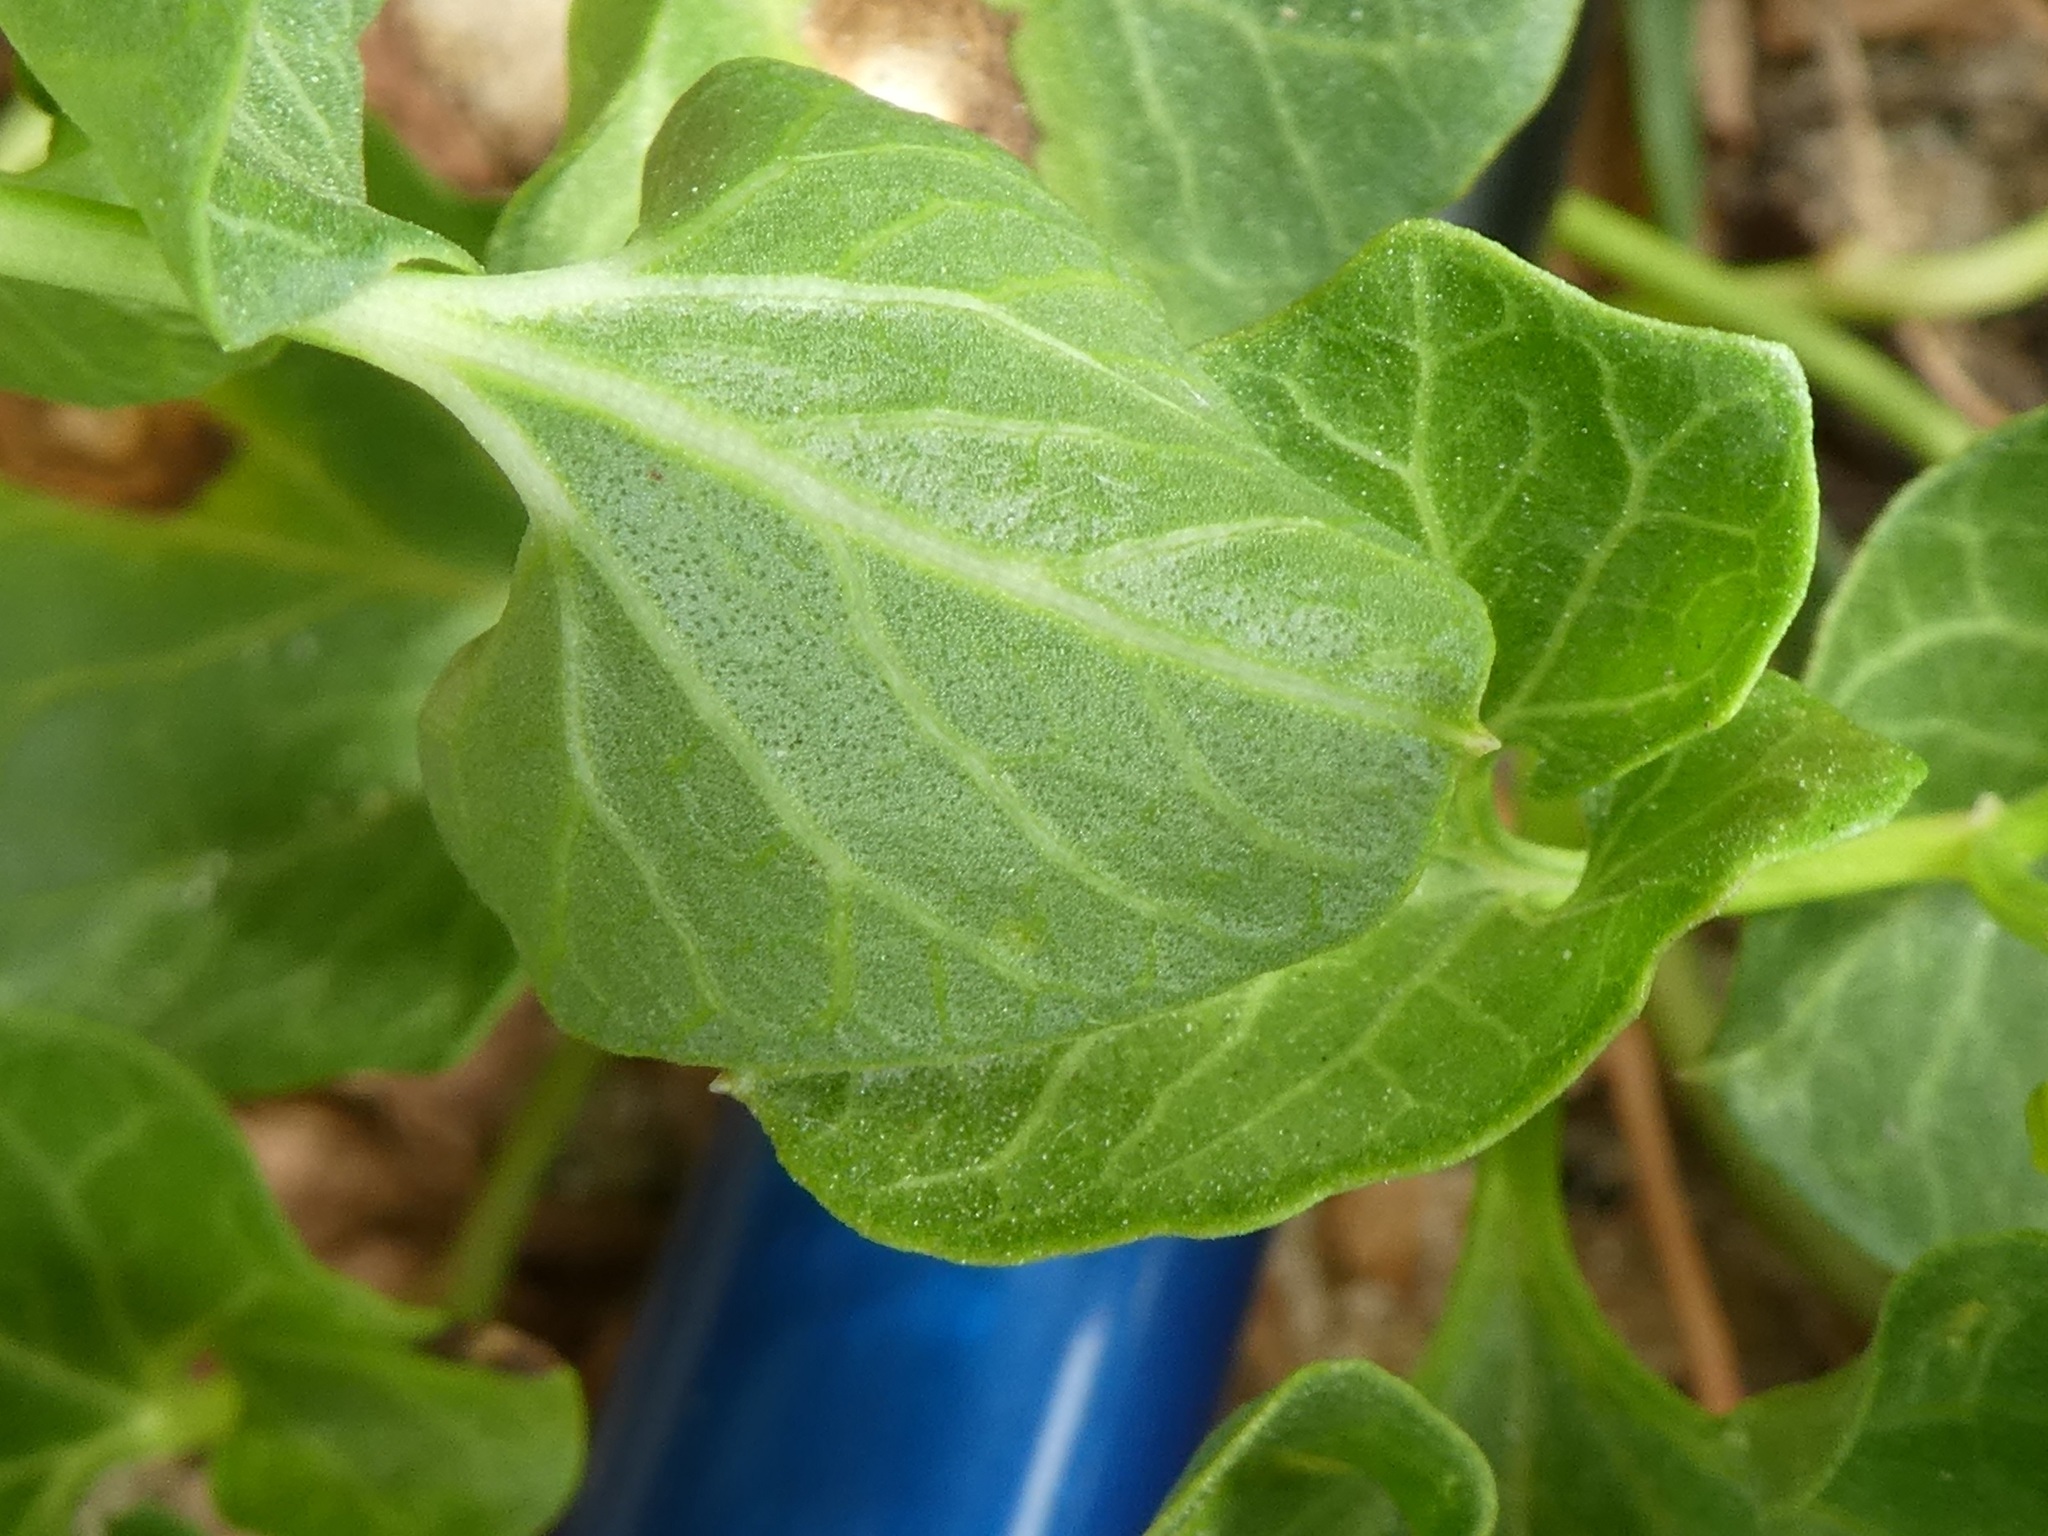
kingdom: Plantae
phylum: Tracheophyta
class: Magnoliopsida
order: Solanales
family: Convolvulaceae
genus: Calystegia
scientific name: Calystegia soldanella
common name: Sea bindweed
